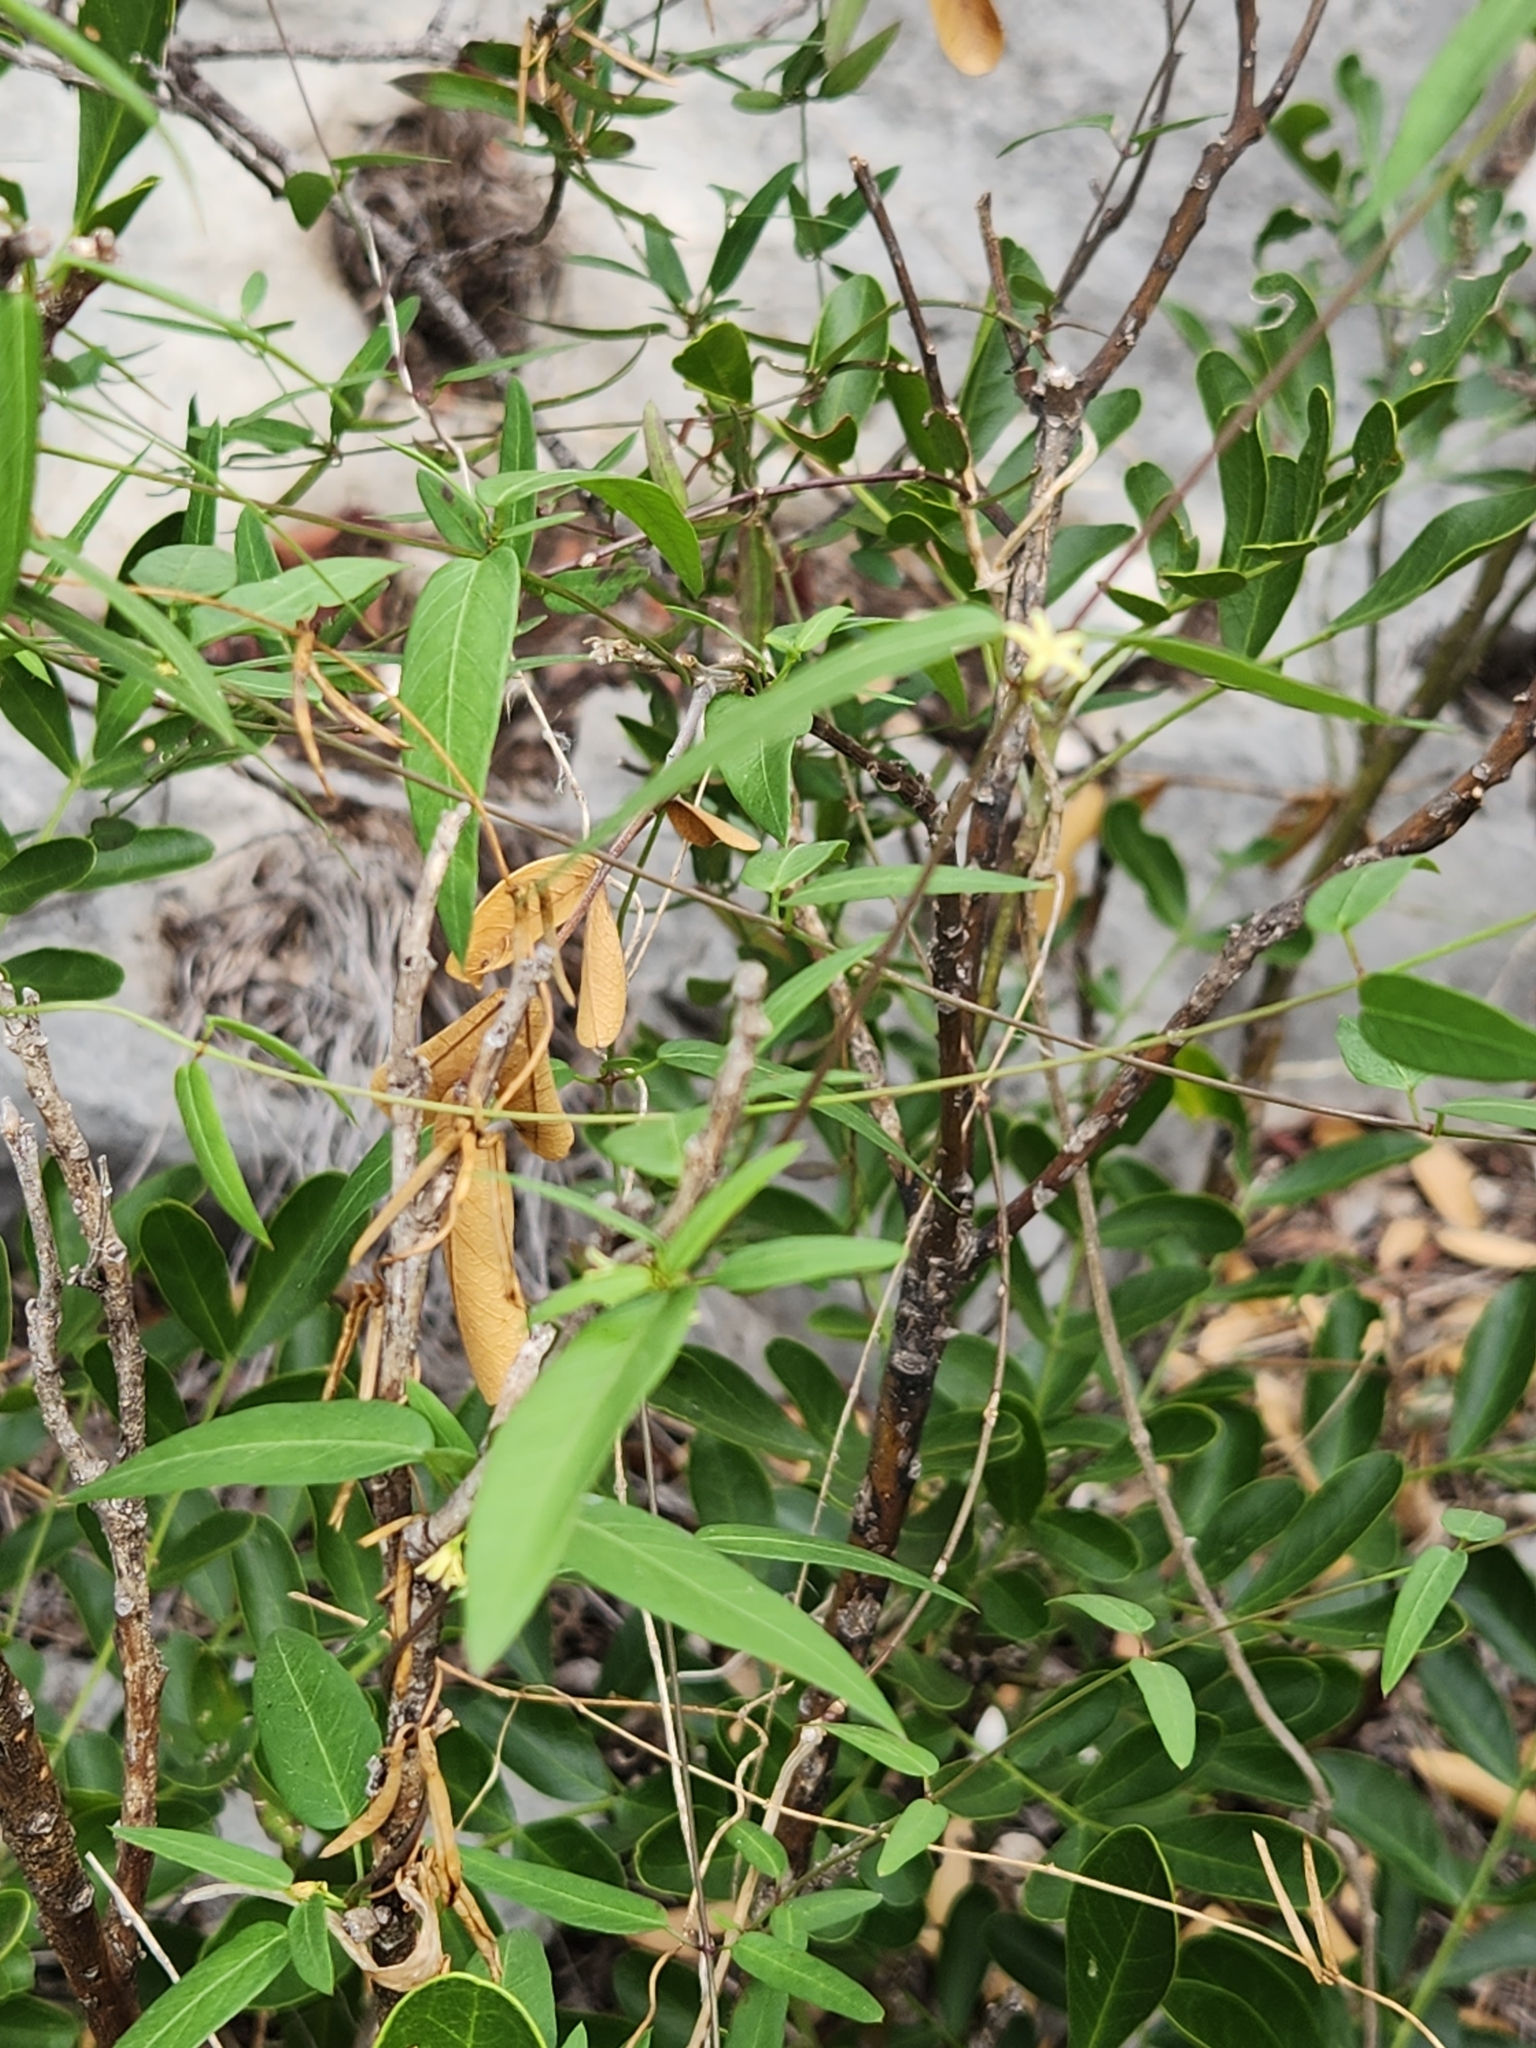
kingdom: Plantae
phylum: Tracheophyta
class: Magnoliopsida
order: Gentianales
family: Apocynaceae
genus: Metastelma
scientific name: Metastelma palmeri
